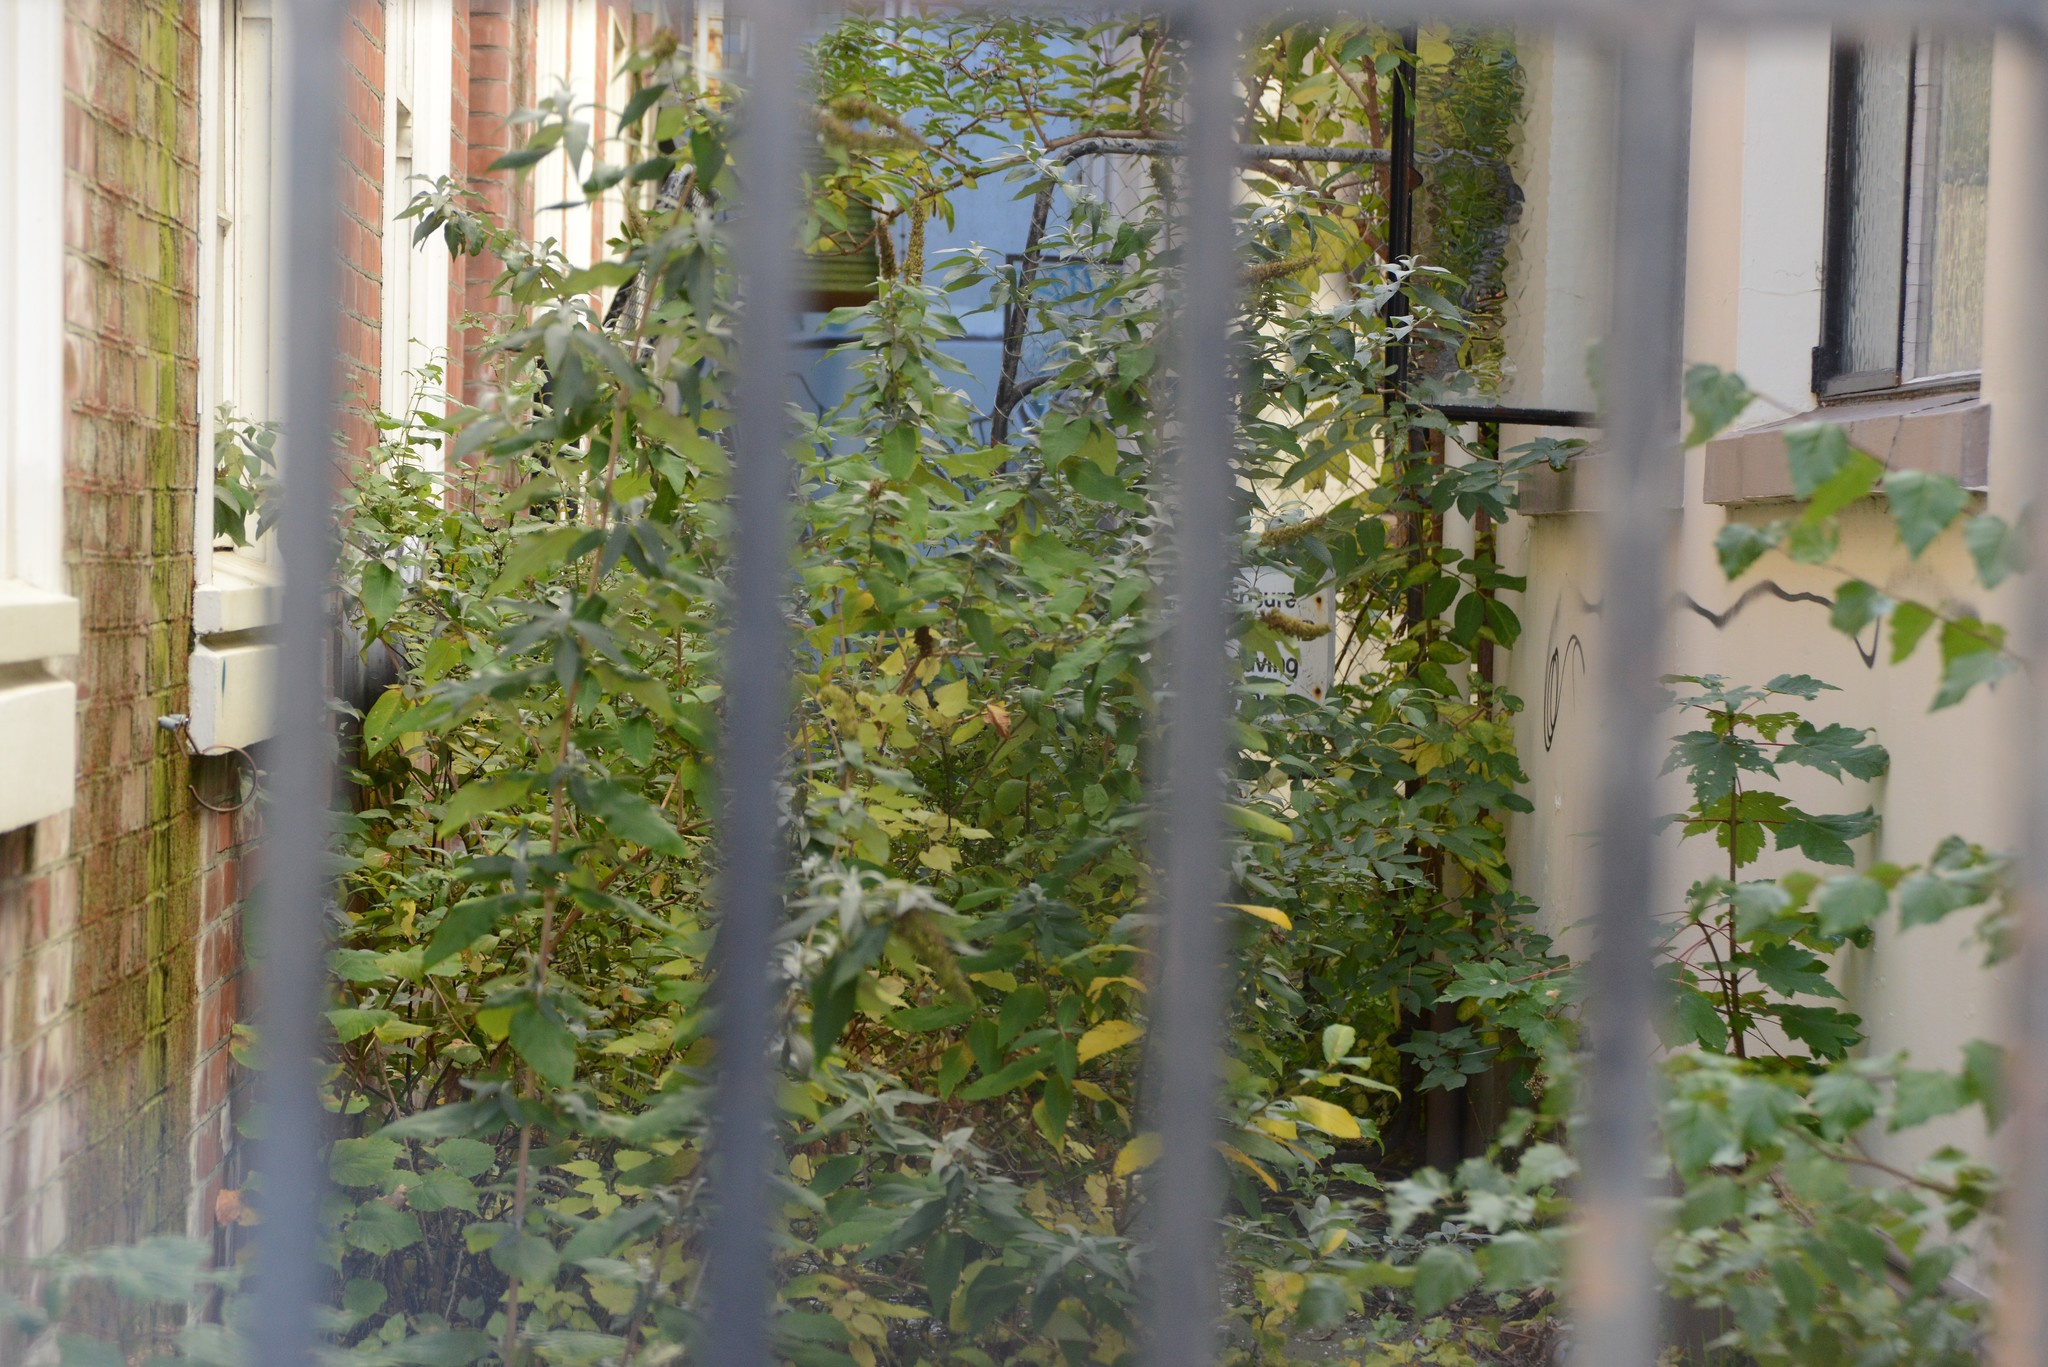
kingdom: Plantae
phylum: Tracheophyta
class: Magnoliopsida
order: Lamiales
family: Scrophulariaceae
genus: Buddleja
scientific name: Buddleja davidii
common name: Butterfly-bush
